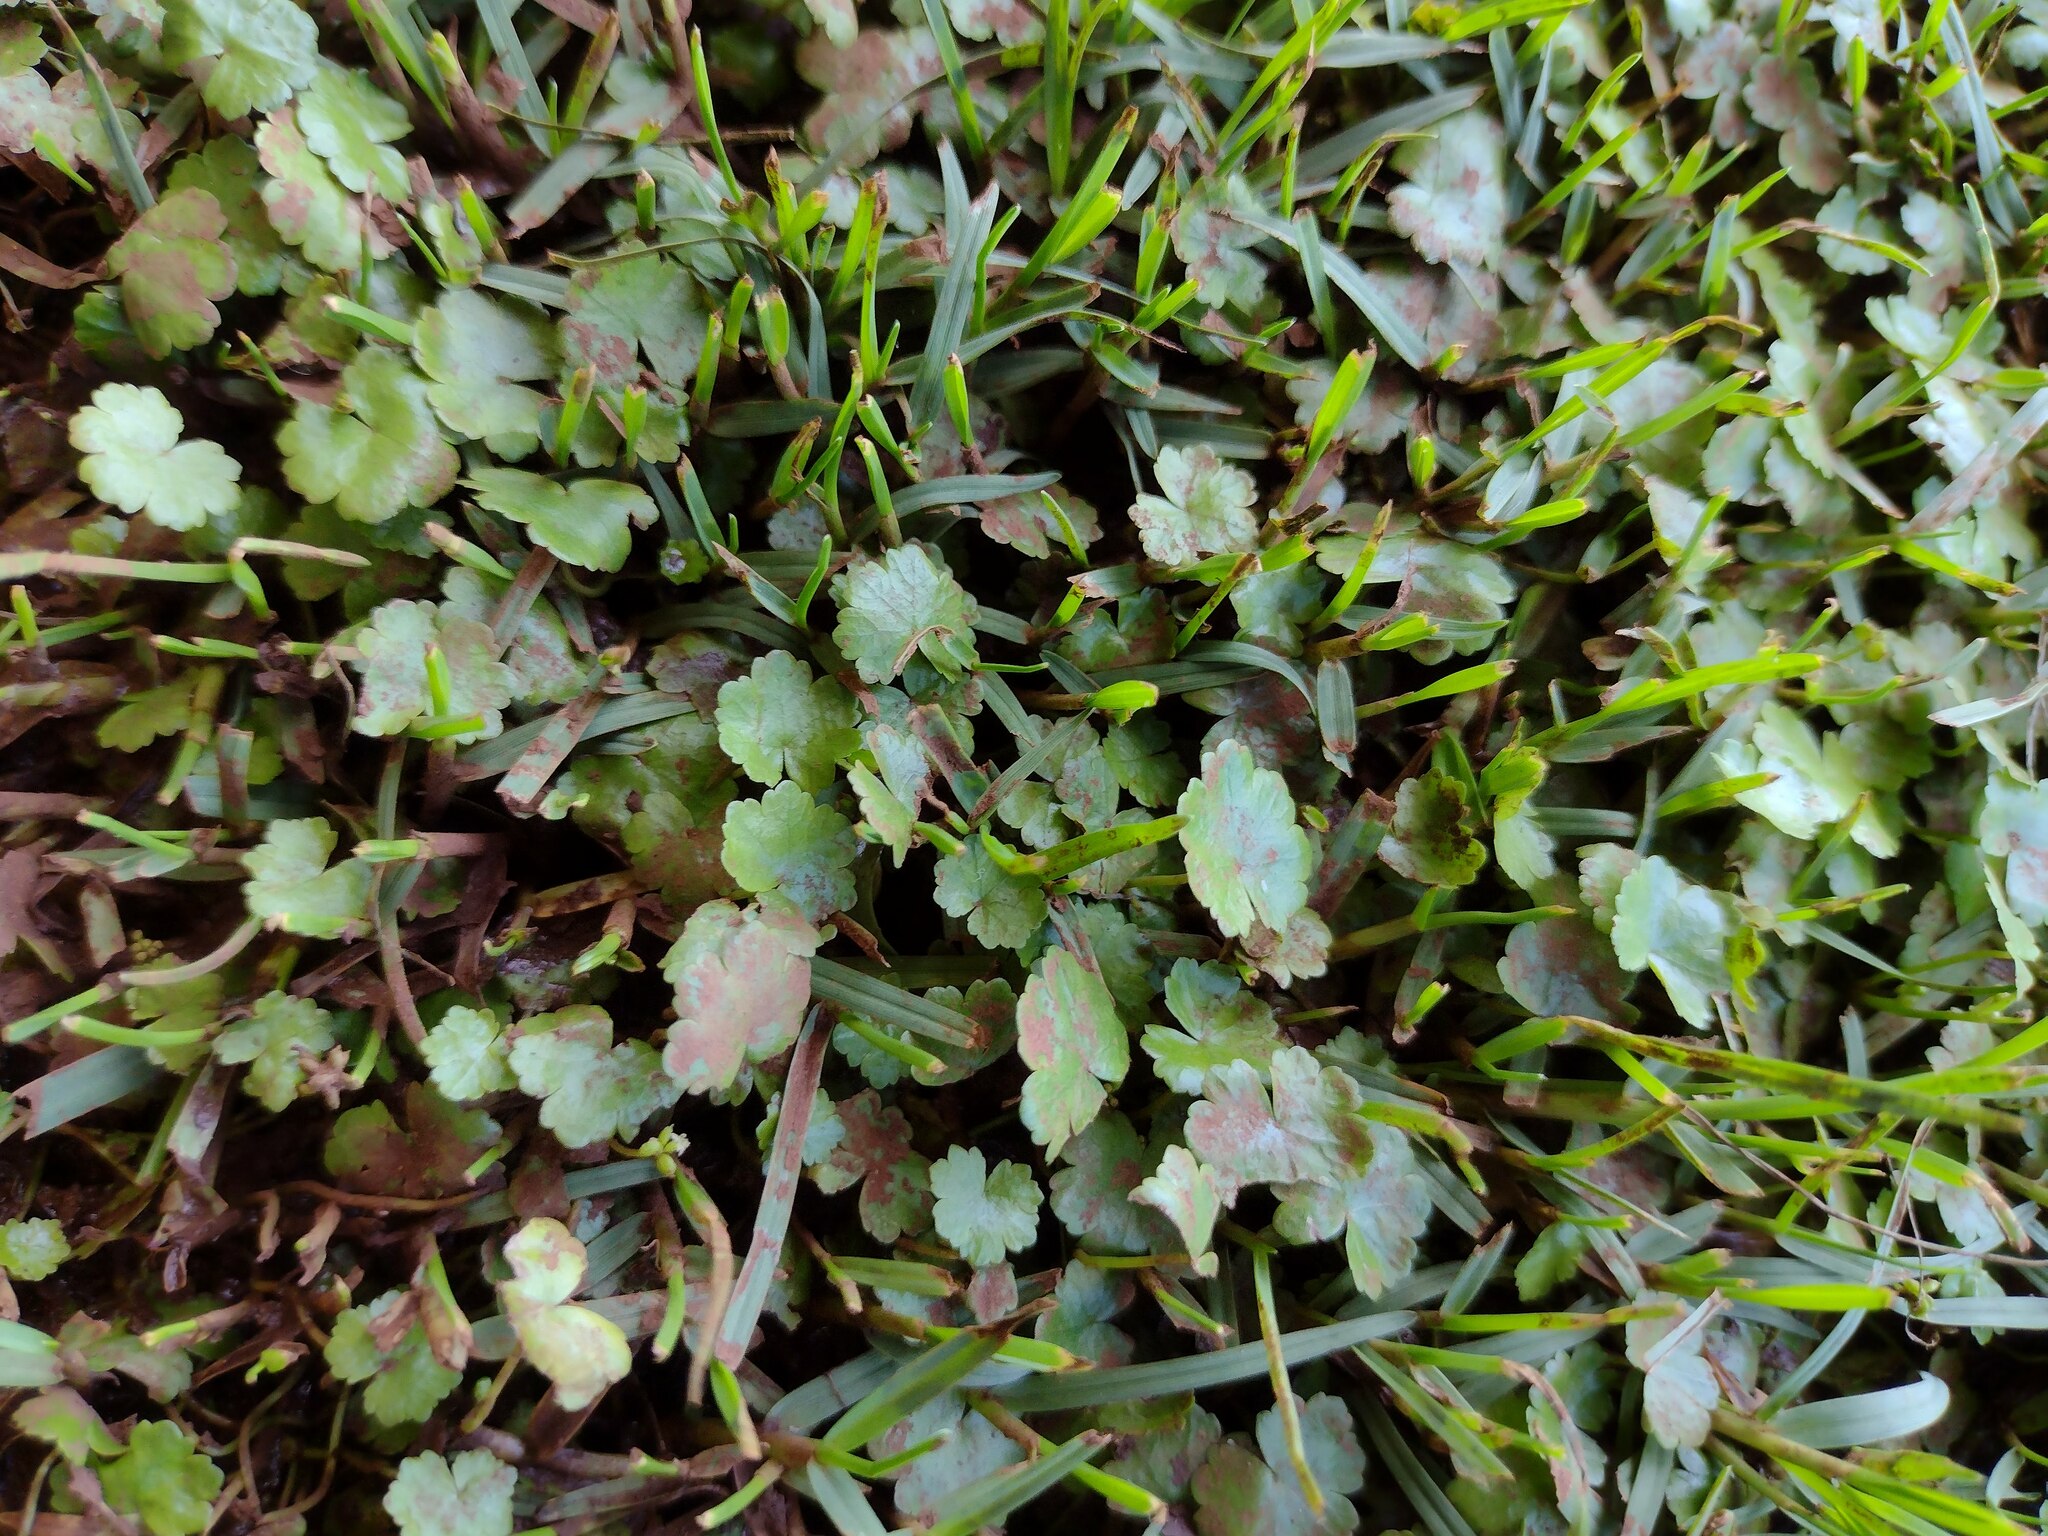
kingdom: Plantae
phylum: Tracheophyta
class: Magnoliopsida
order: Apiales
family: Araliaceae
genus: Hydrocotyle
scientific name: Hydrocotyle sibthorpioides
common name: Lawn marshpennywort
